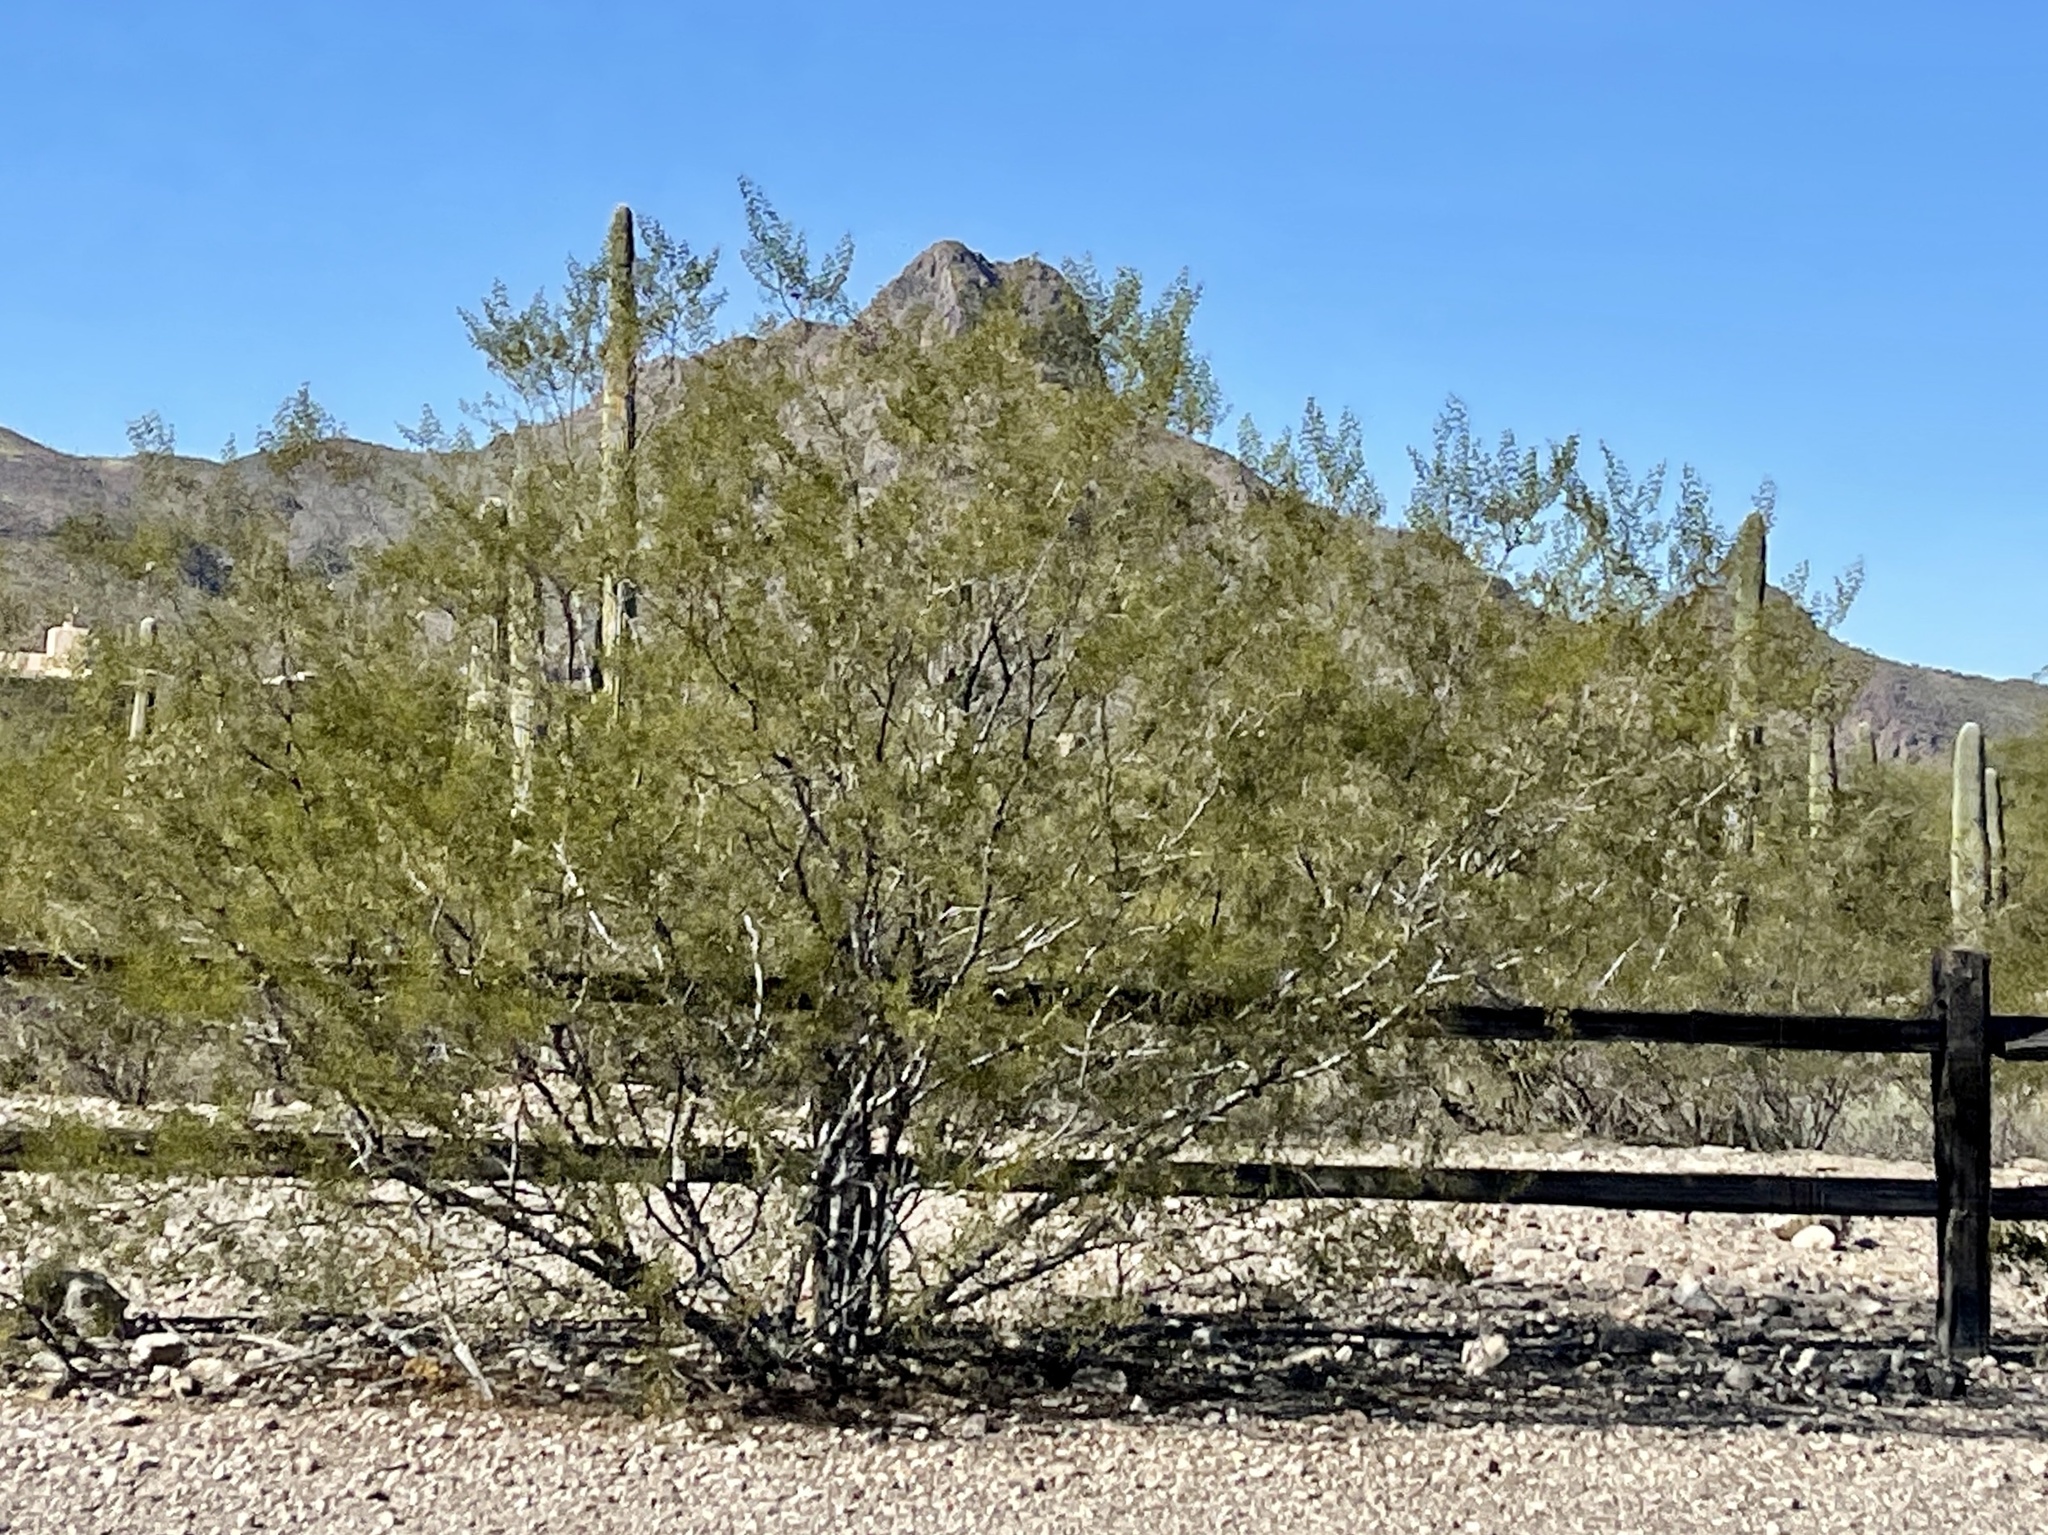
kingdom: Plantae
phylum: Tracheophyta
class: Magnoliopsida
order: Zygophyllales
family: Zygophyllaceae
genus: Larrea
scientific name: Larrea tridentata
